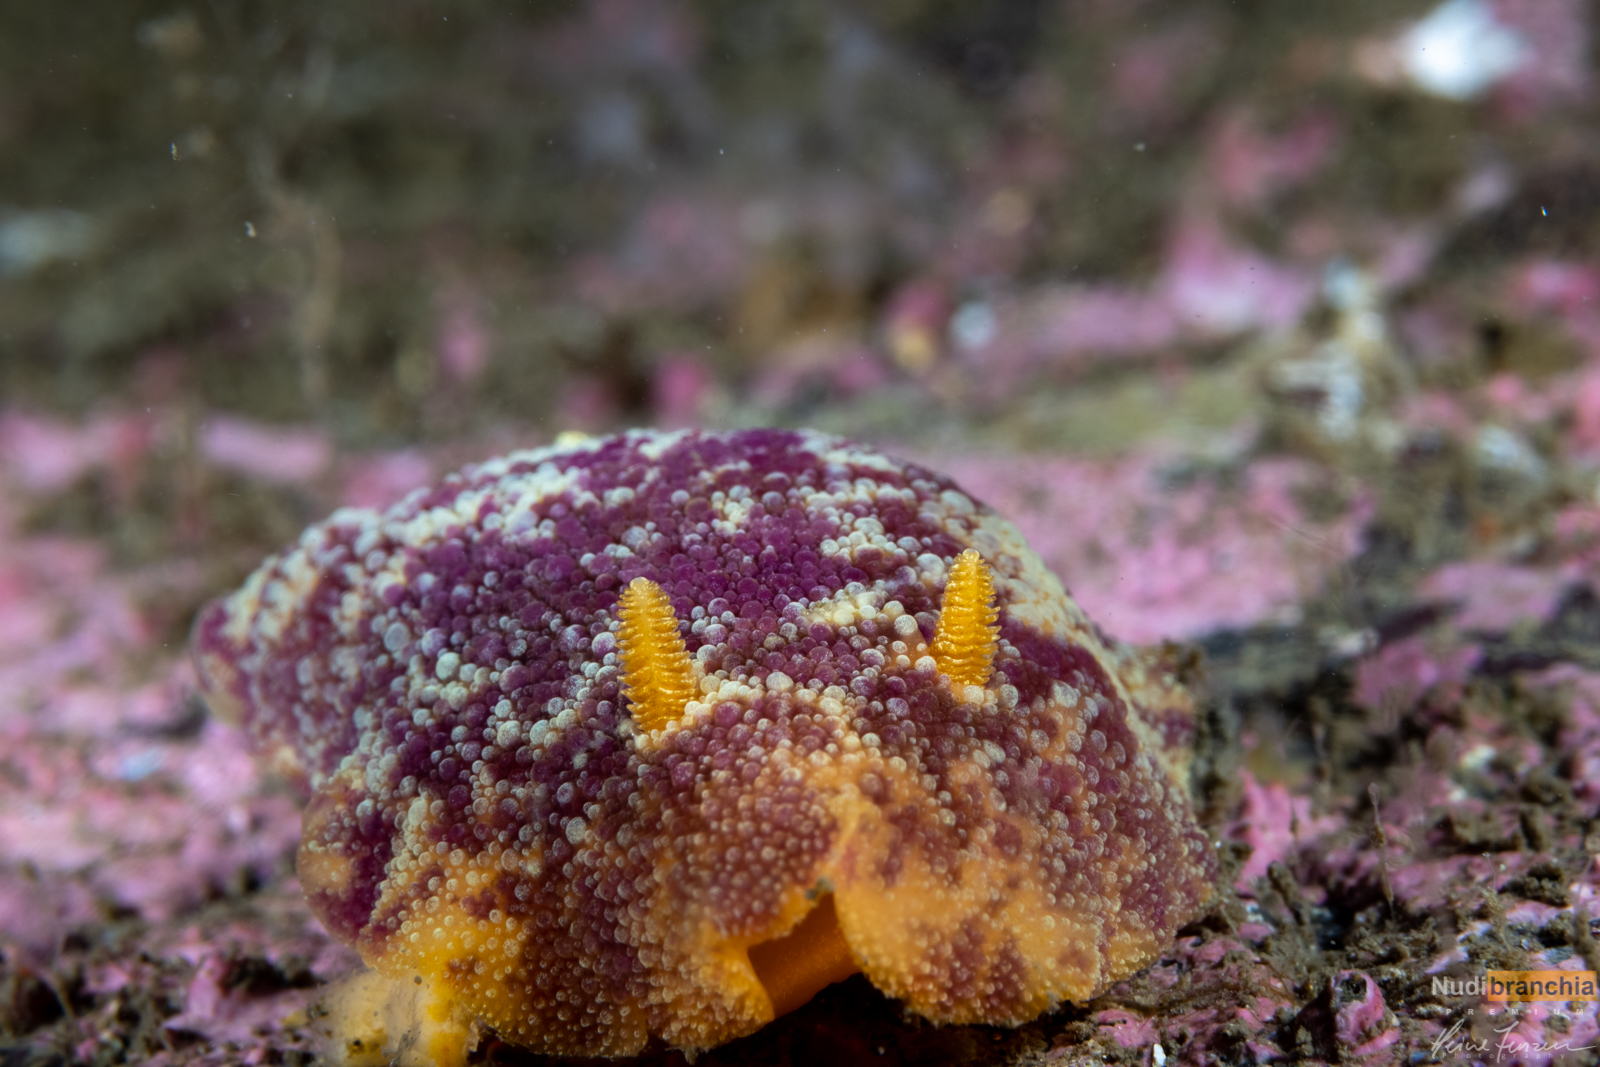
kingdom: Animalia
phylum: Mollusca
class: Gastropoda
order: Nudibranchia
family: Dorididae
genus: Doris
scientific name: Doris pseudoargus
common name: Sea lemon
